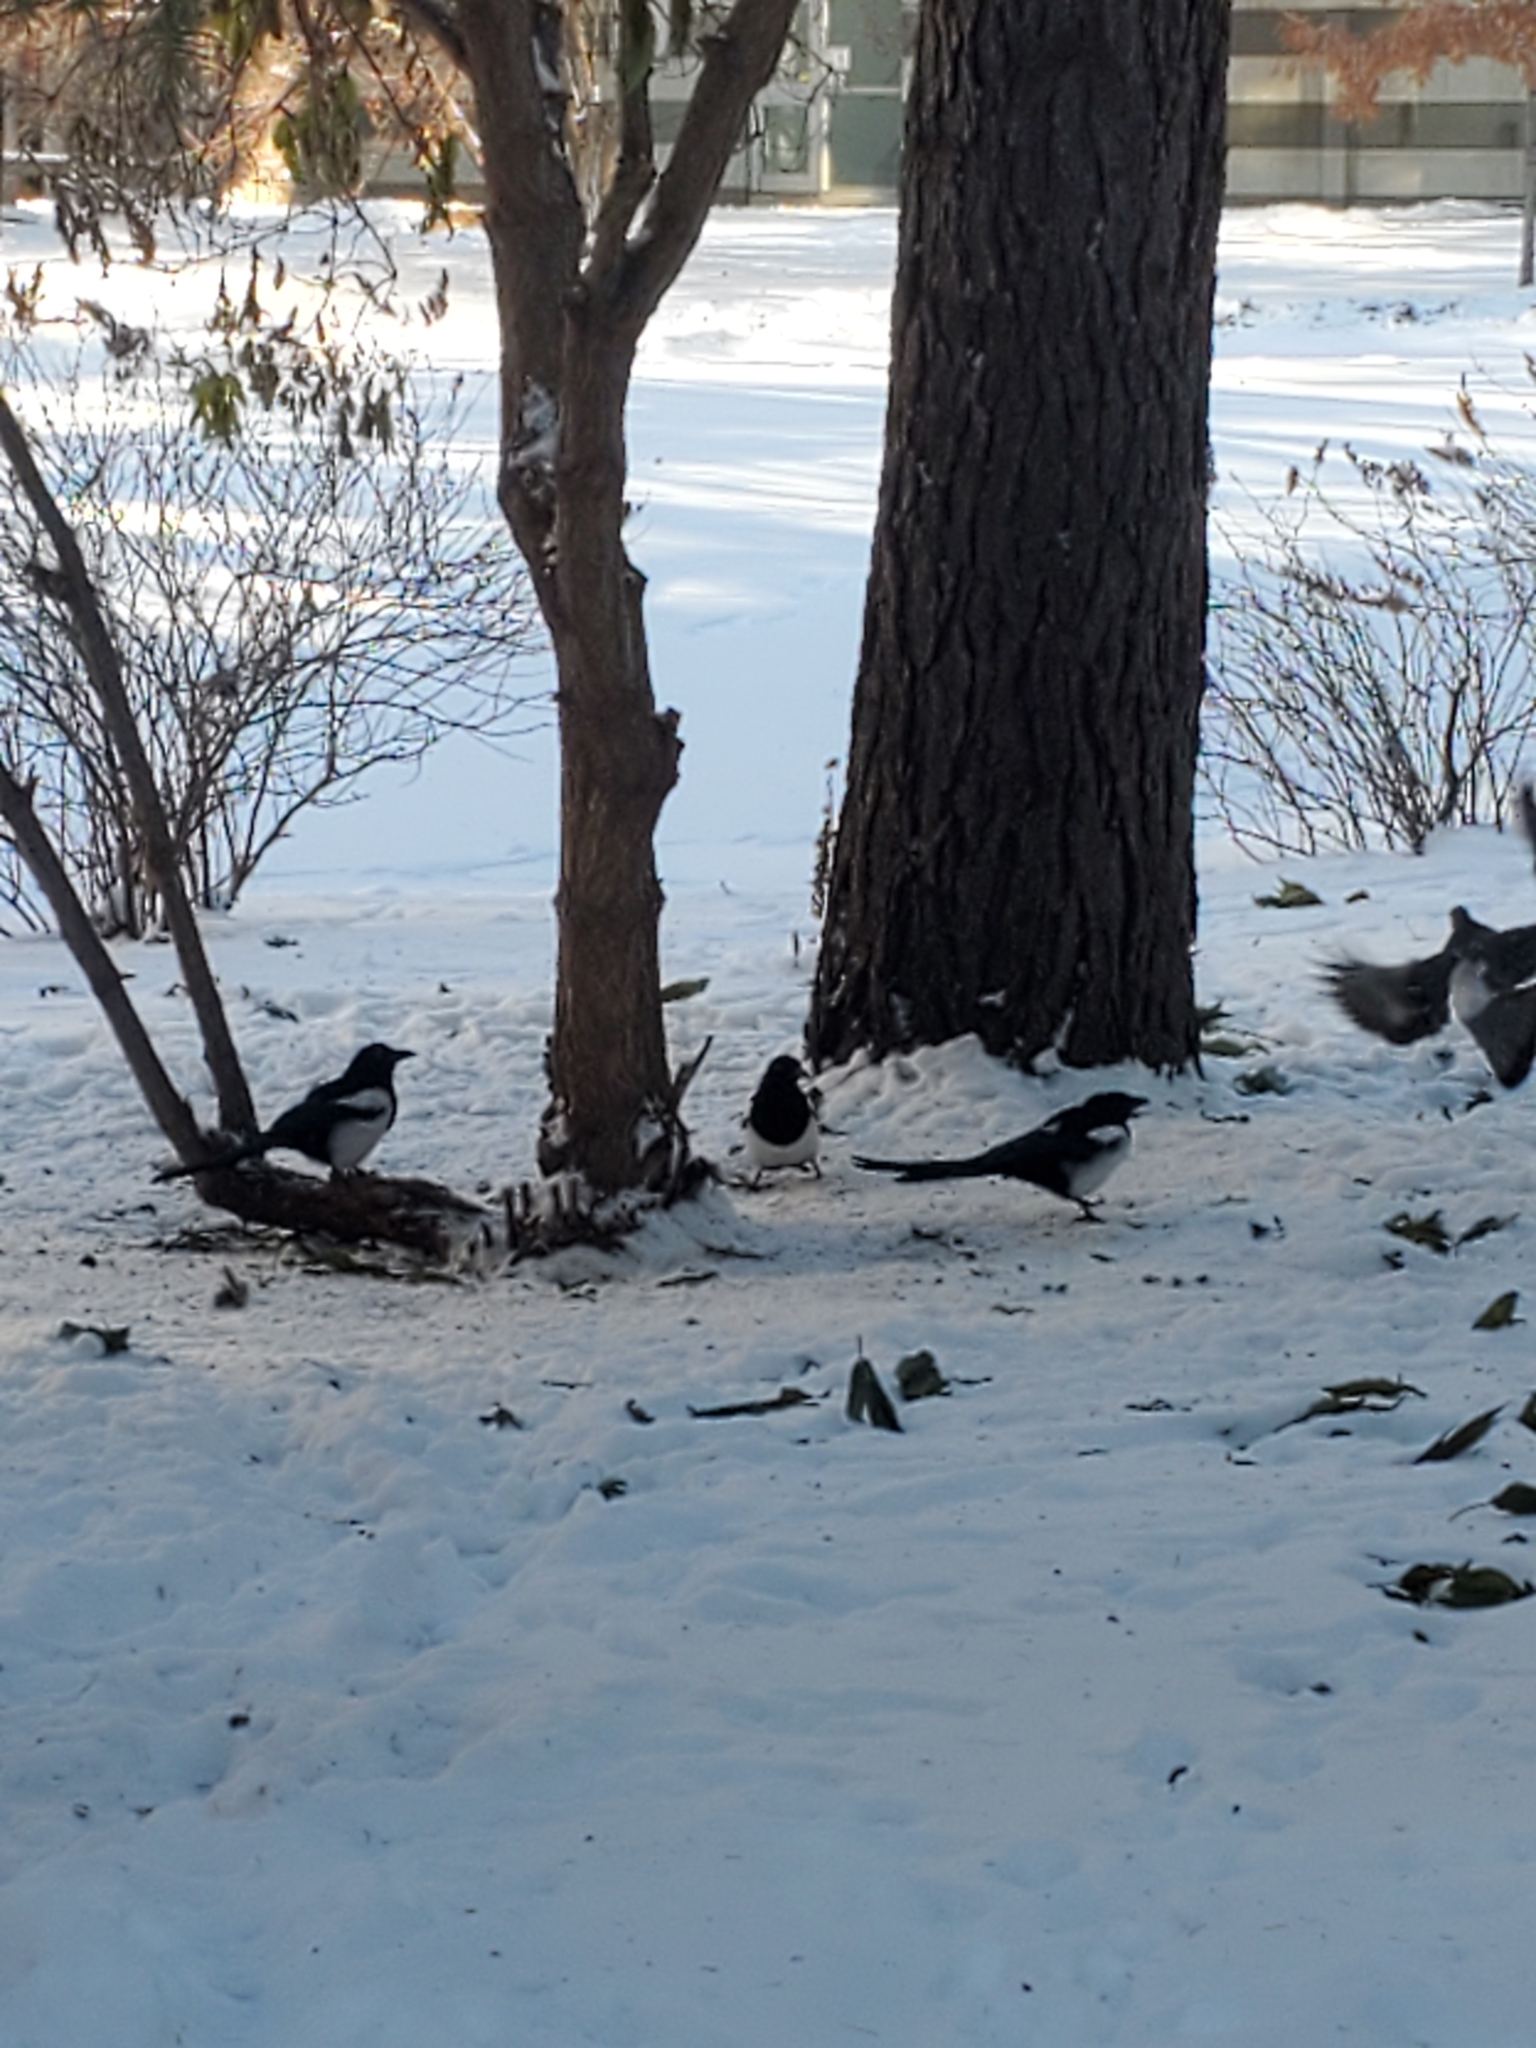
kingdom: Animalia
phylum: Chordata
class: Aves
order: Passeriformes
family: Corvidae
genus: Pica
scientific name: Pica hudsonia
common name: Black-billed magpie
